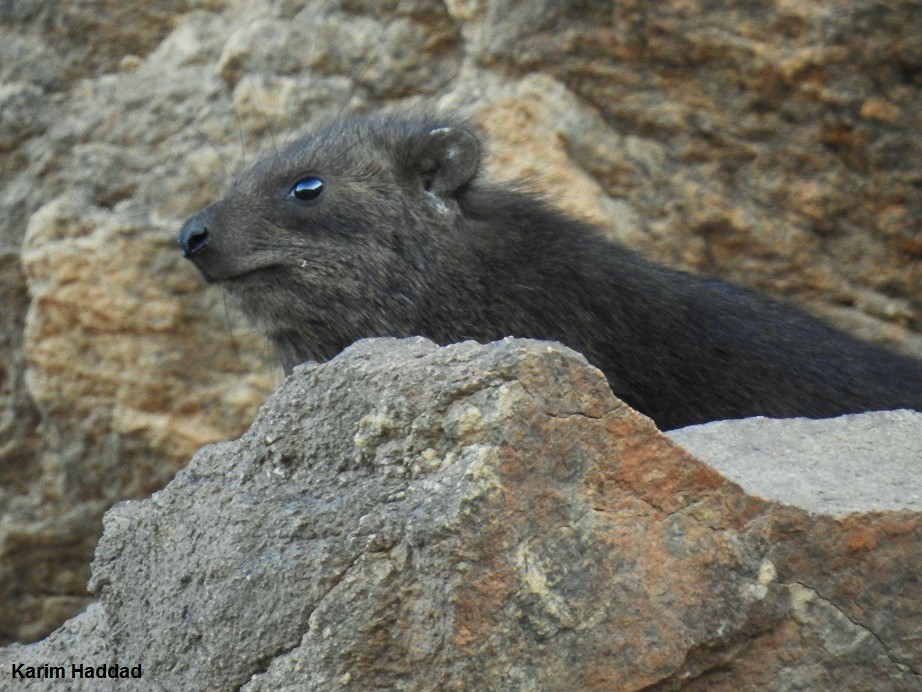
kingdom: Animalia
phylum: Chordata
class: Mammalia
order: Hyracoidea
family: Procaviidae
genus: Procavia
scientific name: Procavia capensis
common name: Rock hyrax
